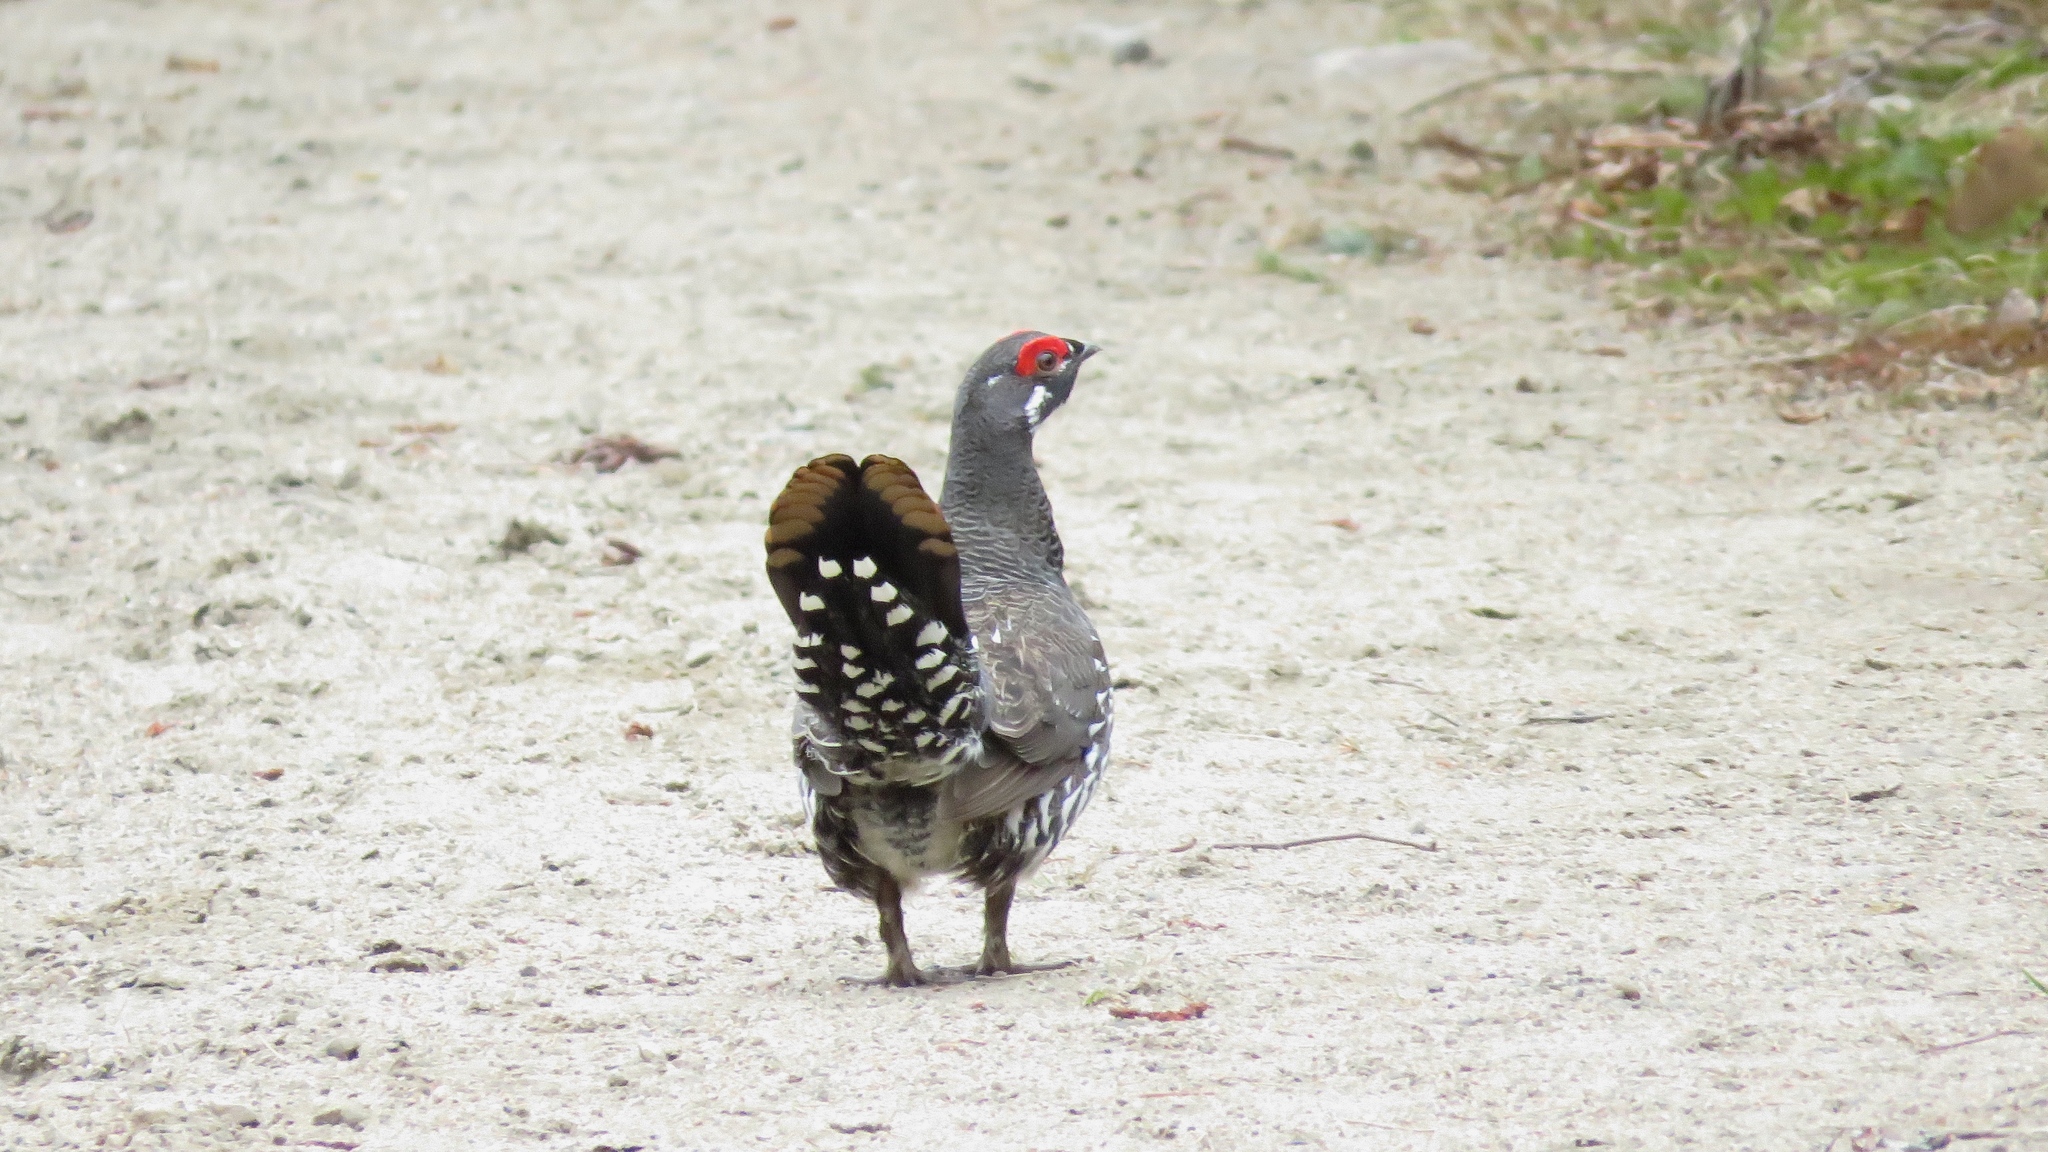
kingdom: Animalia
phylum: Chordata
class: Aves
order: Galliformes
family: Phasianidae
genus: Canachites
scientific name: Canachites canadensis
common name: Spruce grouse
